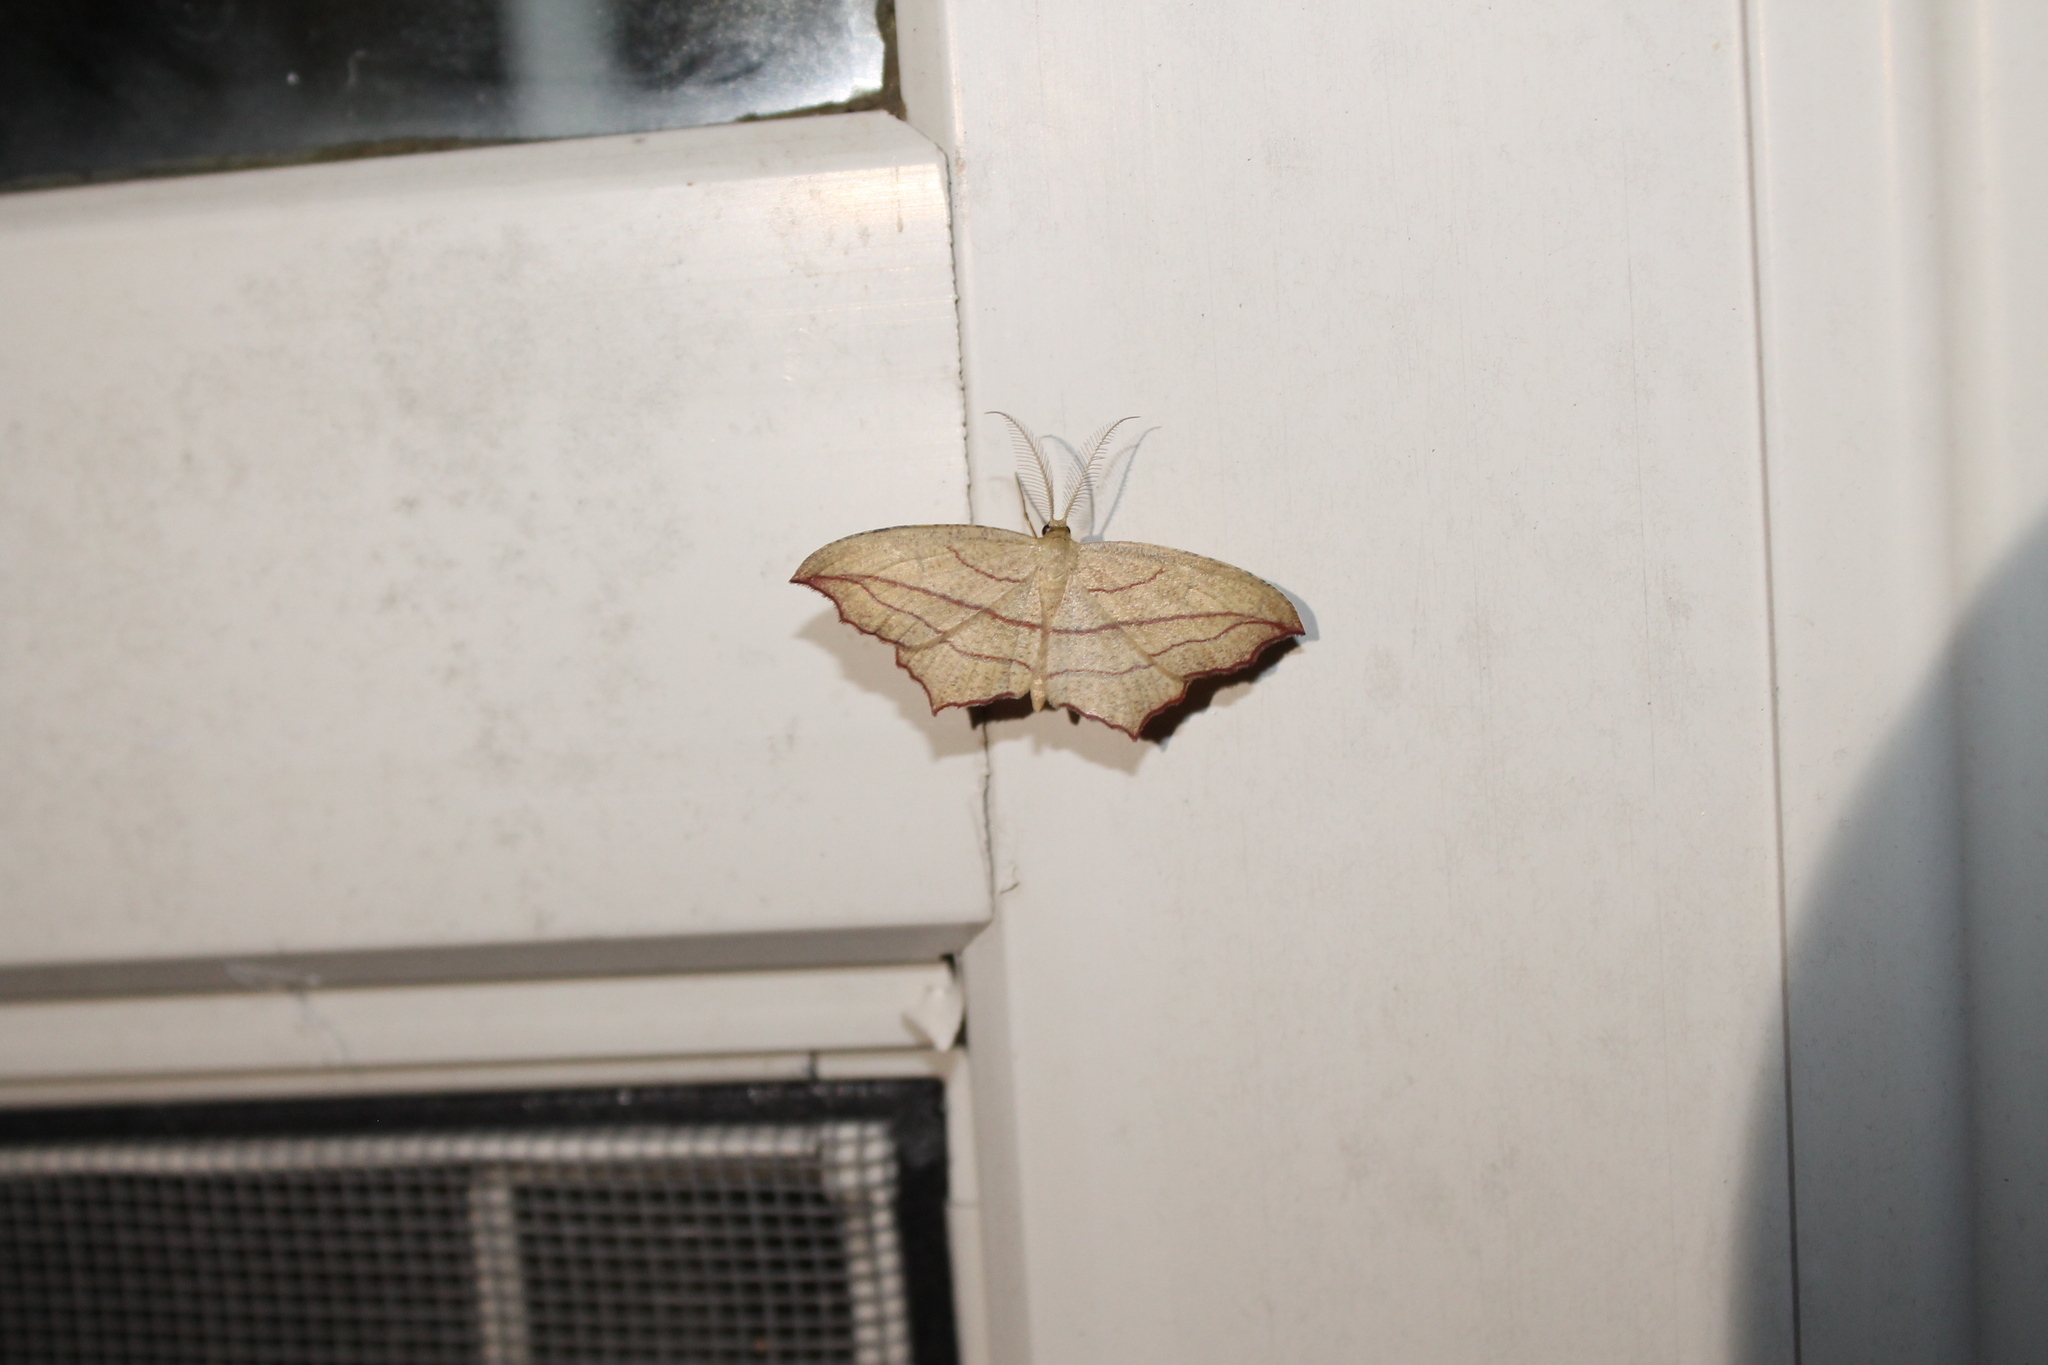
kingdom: Animalia
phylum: Arthropoda
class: Insecta
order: Lepidoptera
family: Geometridae
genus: Timandra
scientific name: Timandra amaturaria
